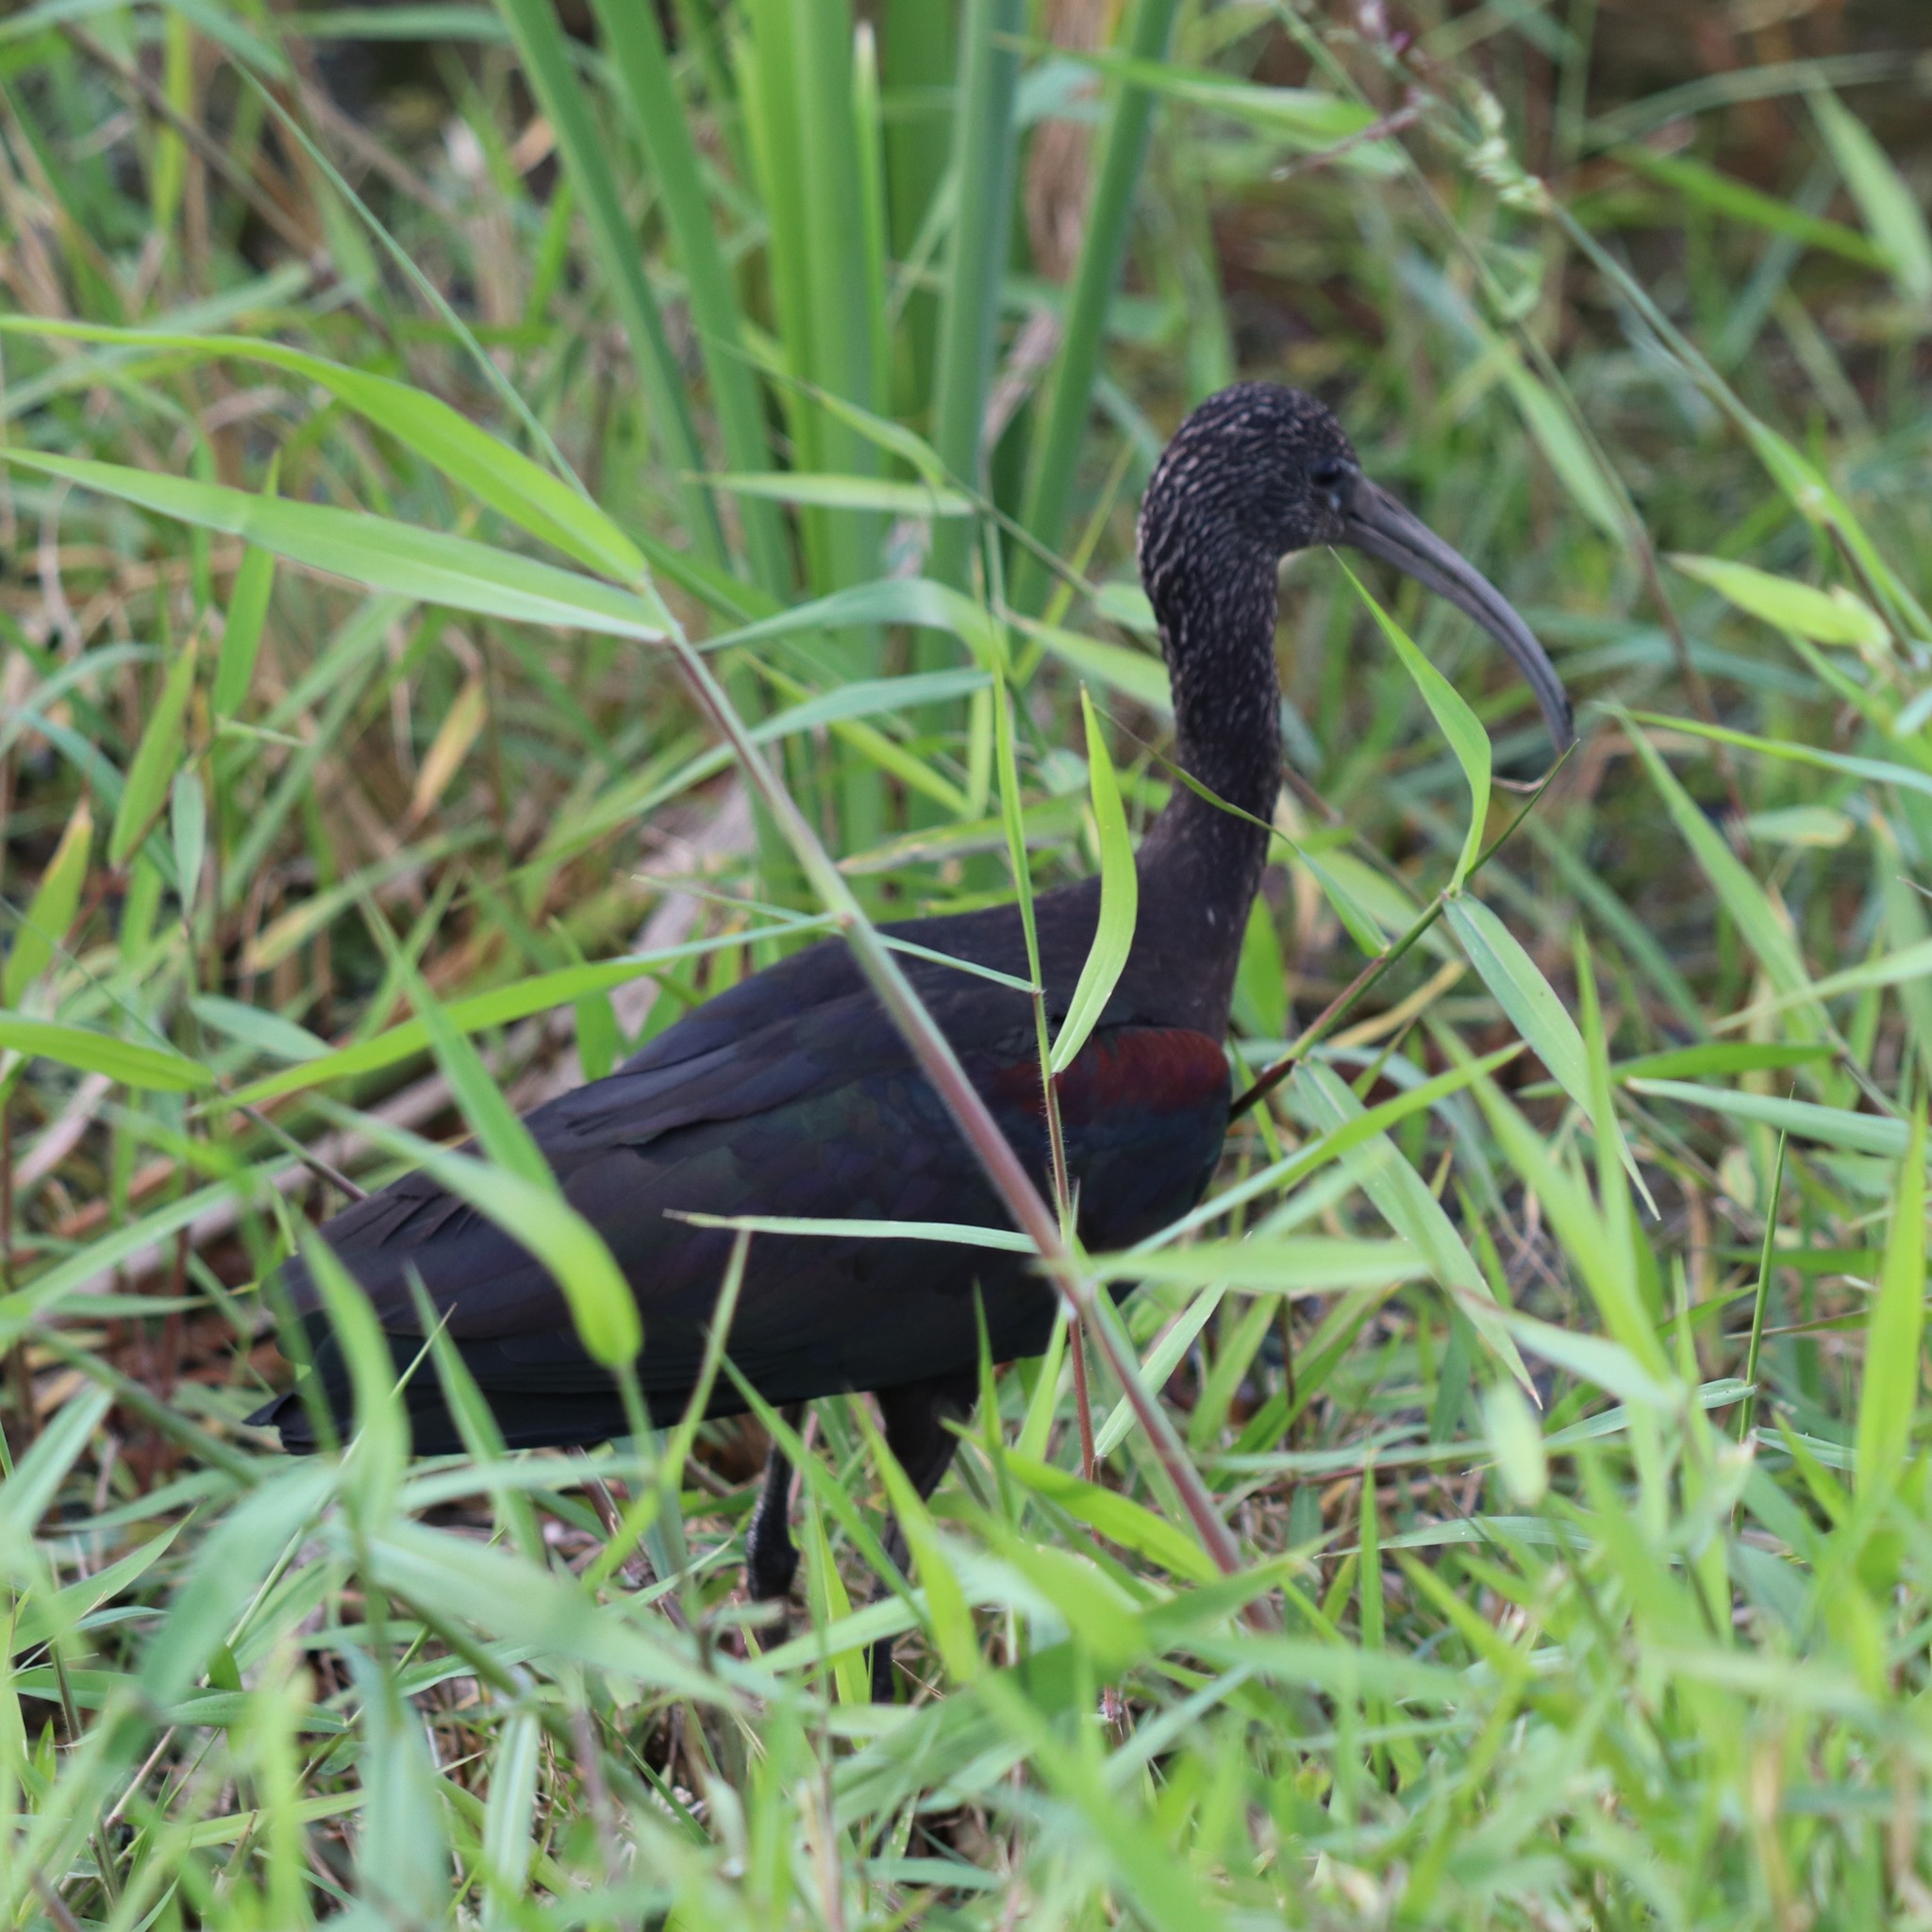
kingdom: Animalia
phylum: Chordata
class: Aves
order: Pelecaniformes
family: Threskiornithidae
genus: Plegadis
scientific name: Plegadis falcinellus
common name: Glossy ibis
